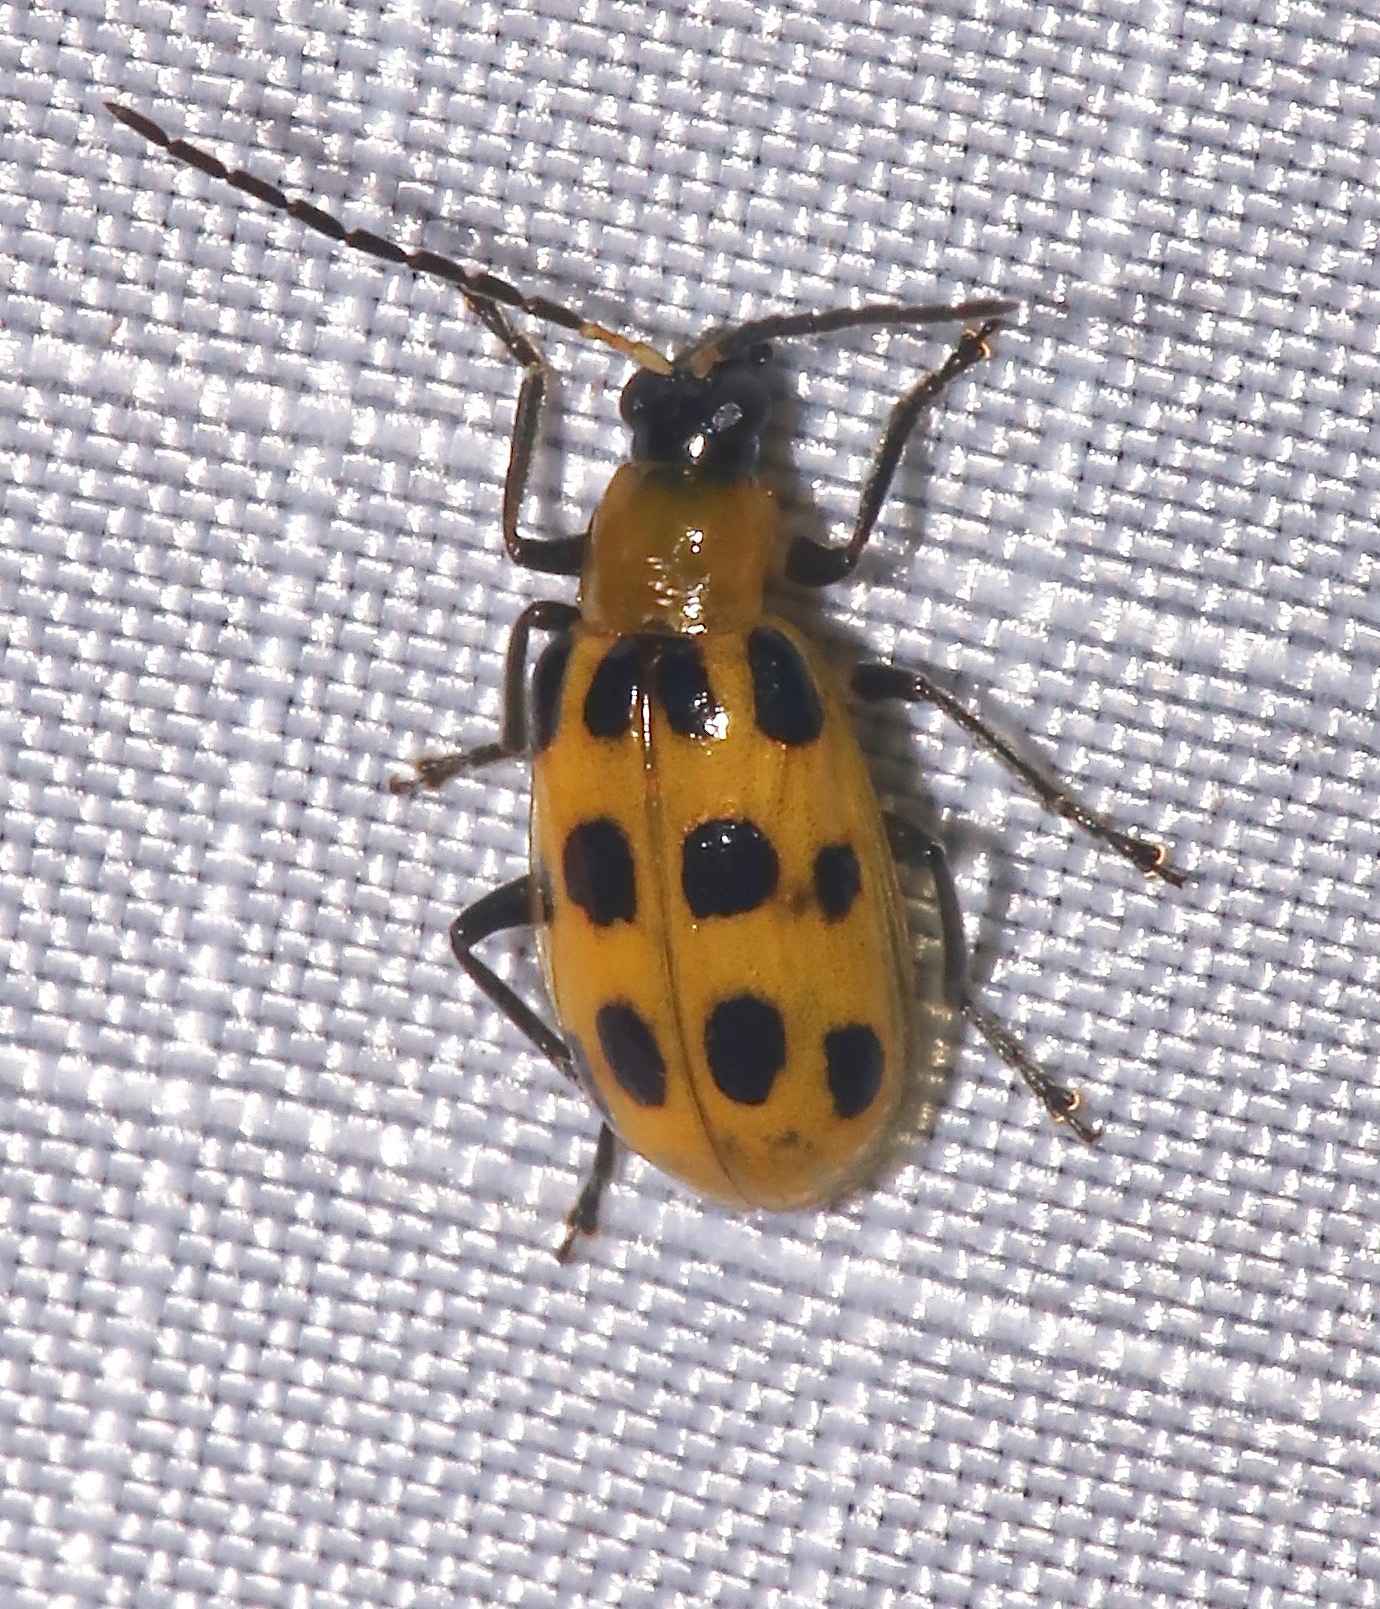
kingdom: Animalia
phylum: Arthropoda
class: Insecta
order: Coleoptera
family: Chrysomelidae
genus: Diabrotica
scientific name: Diabrotica undecimpunctata
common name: Spotted cucumber beetle
